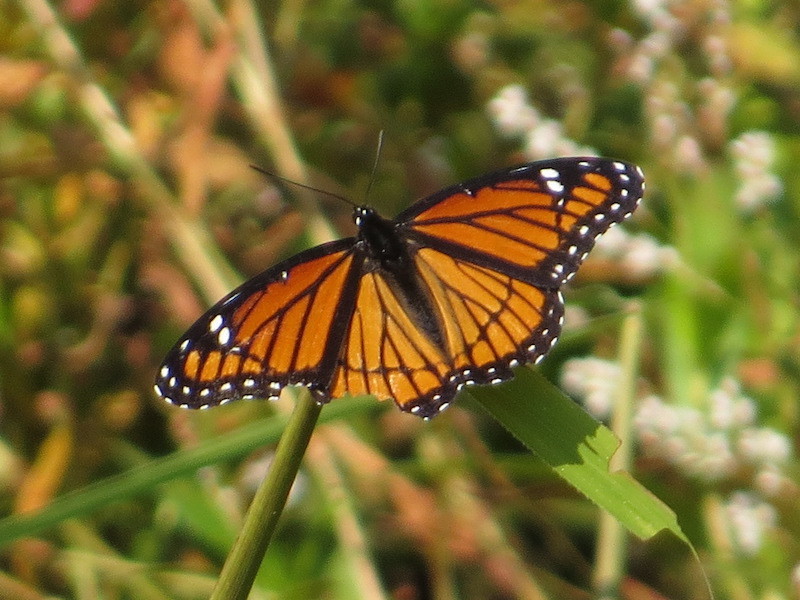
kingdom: Animalia
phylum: Arthropoda
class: Insecta
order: Lepidoptera
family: Nymphalidae
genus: Limenitis
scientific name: Limenitis archippus
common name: Viceroy
